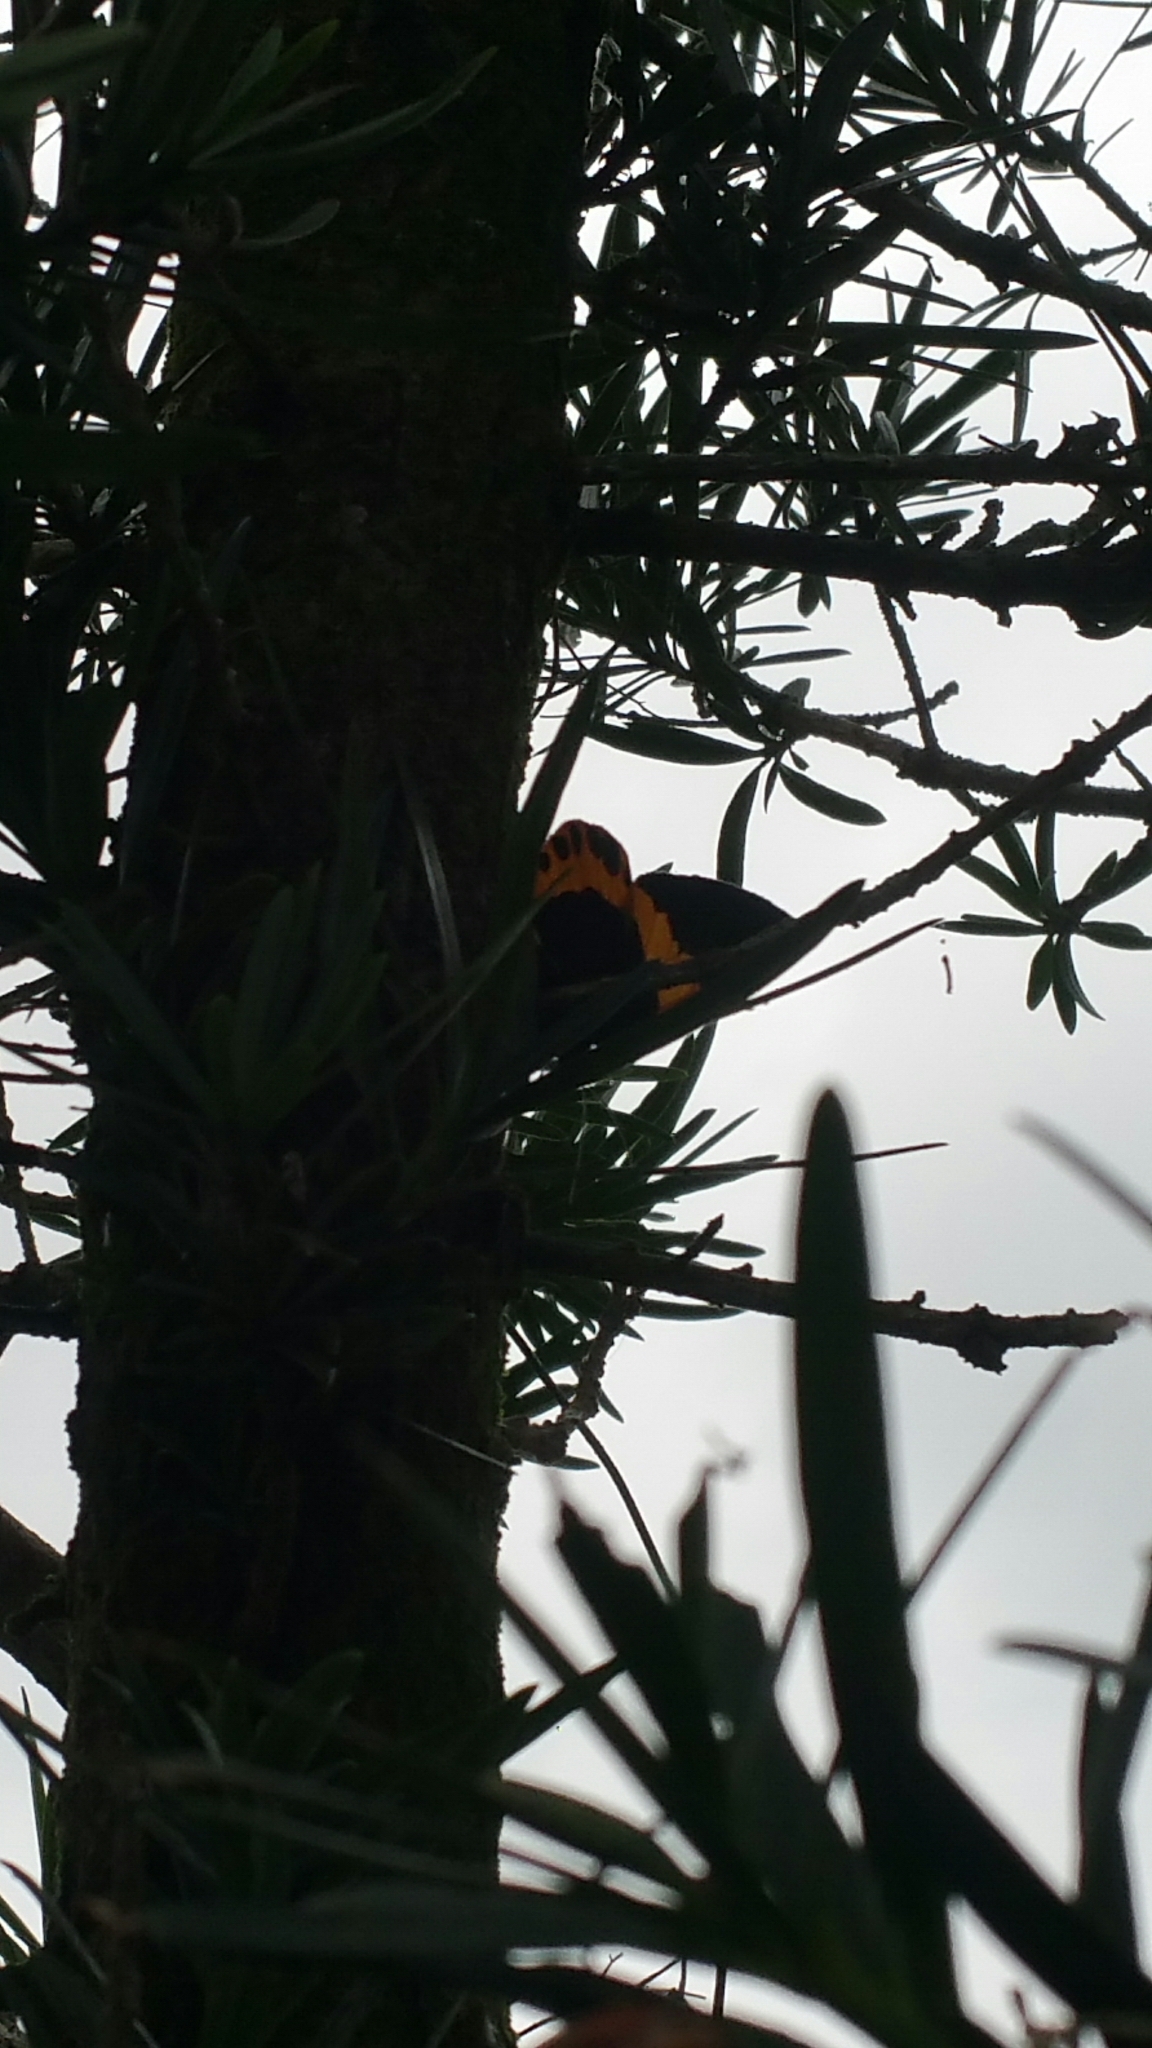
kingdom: Animalia
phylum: Arthropoda
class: Insecta
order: Lepidoptera
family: Geometridae
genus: Milionia
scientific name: Milionia basalis
